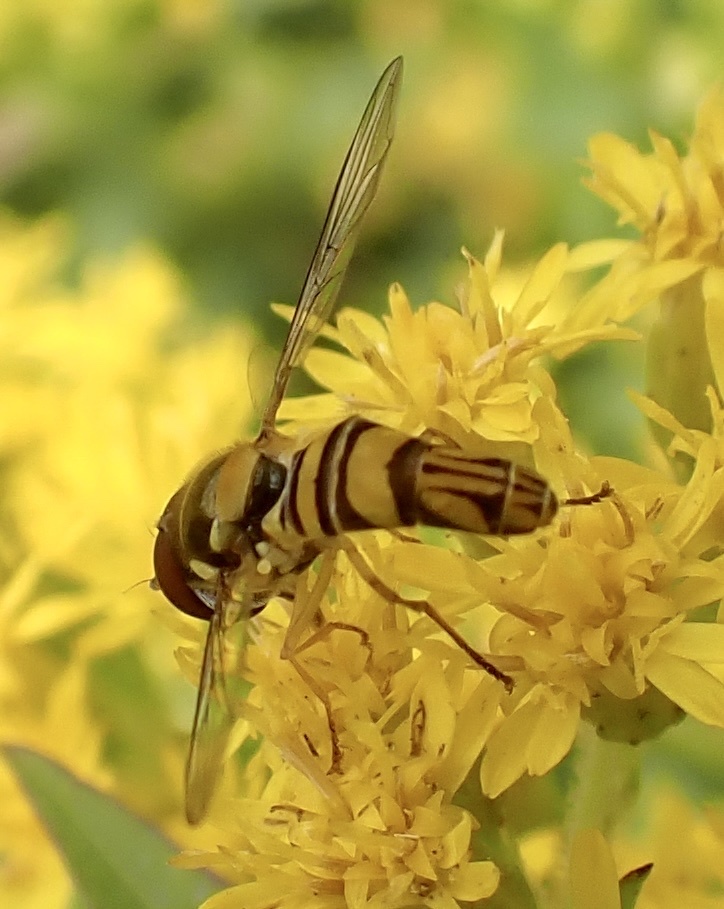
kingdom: Animalia
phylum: Arthropoda
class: Insecta
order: Diptera
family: Syrphidae
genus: Allograpta
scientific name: Allograpta obliqua
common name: Common oblique syrphid
